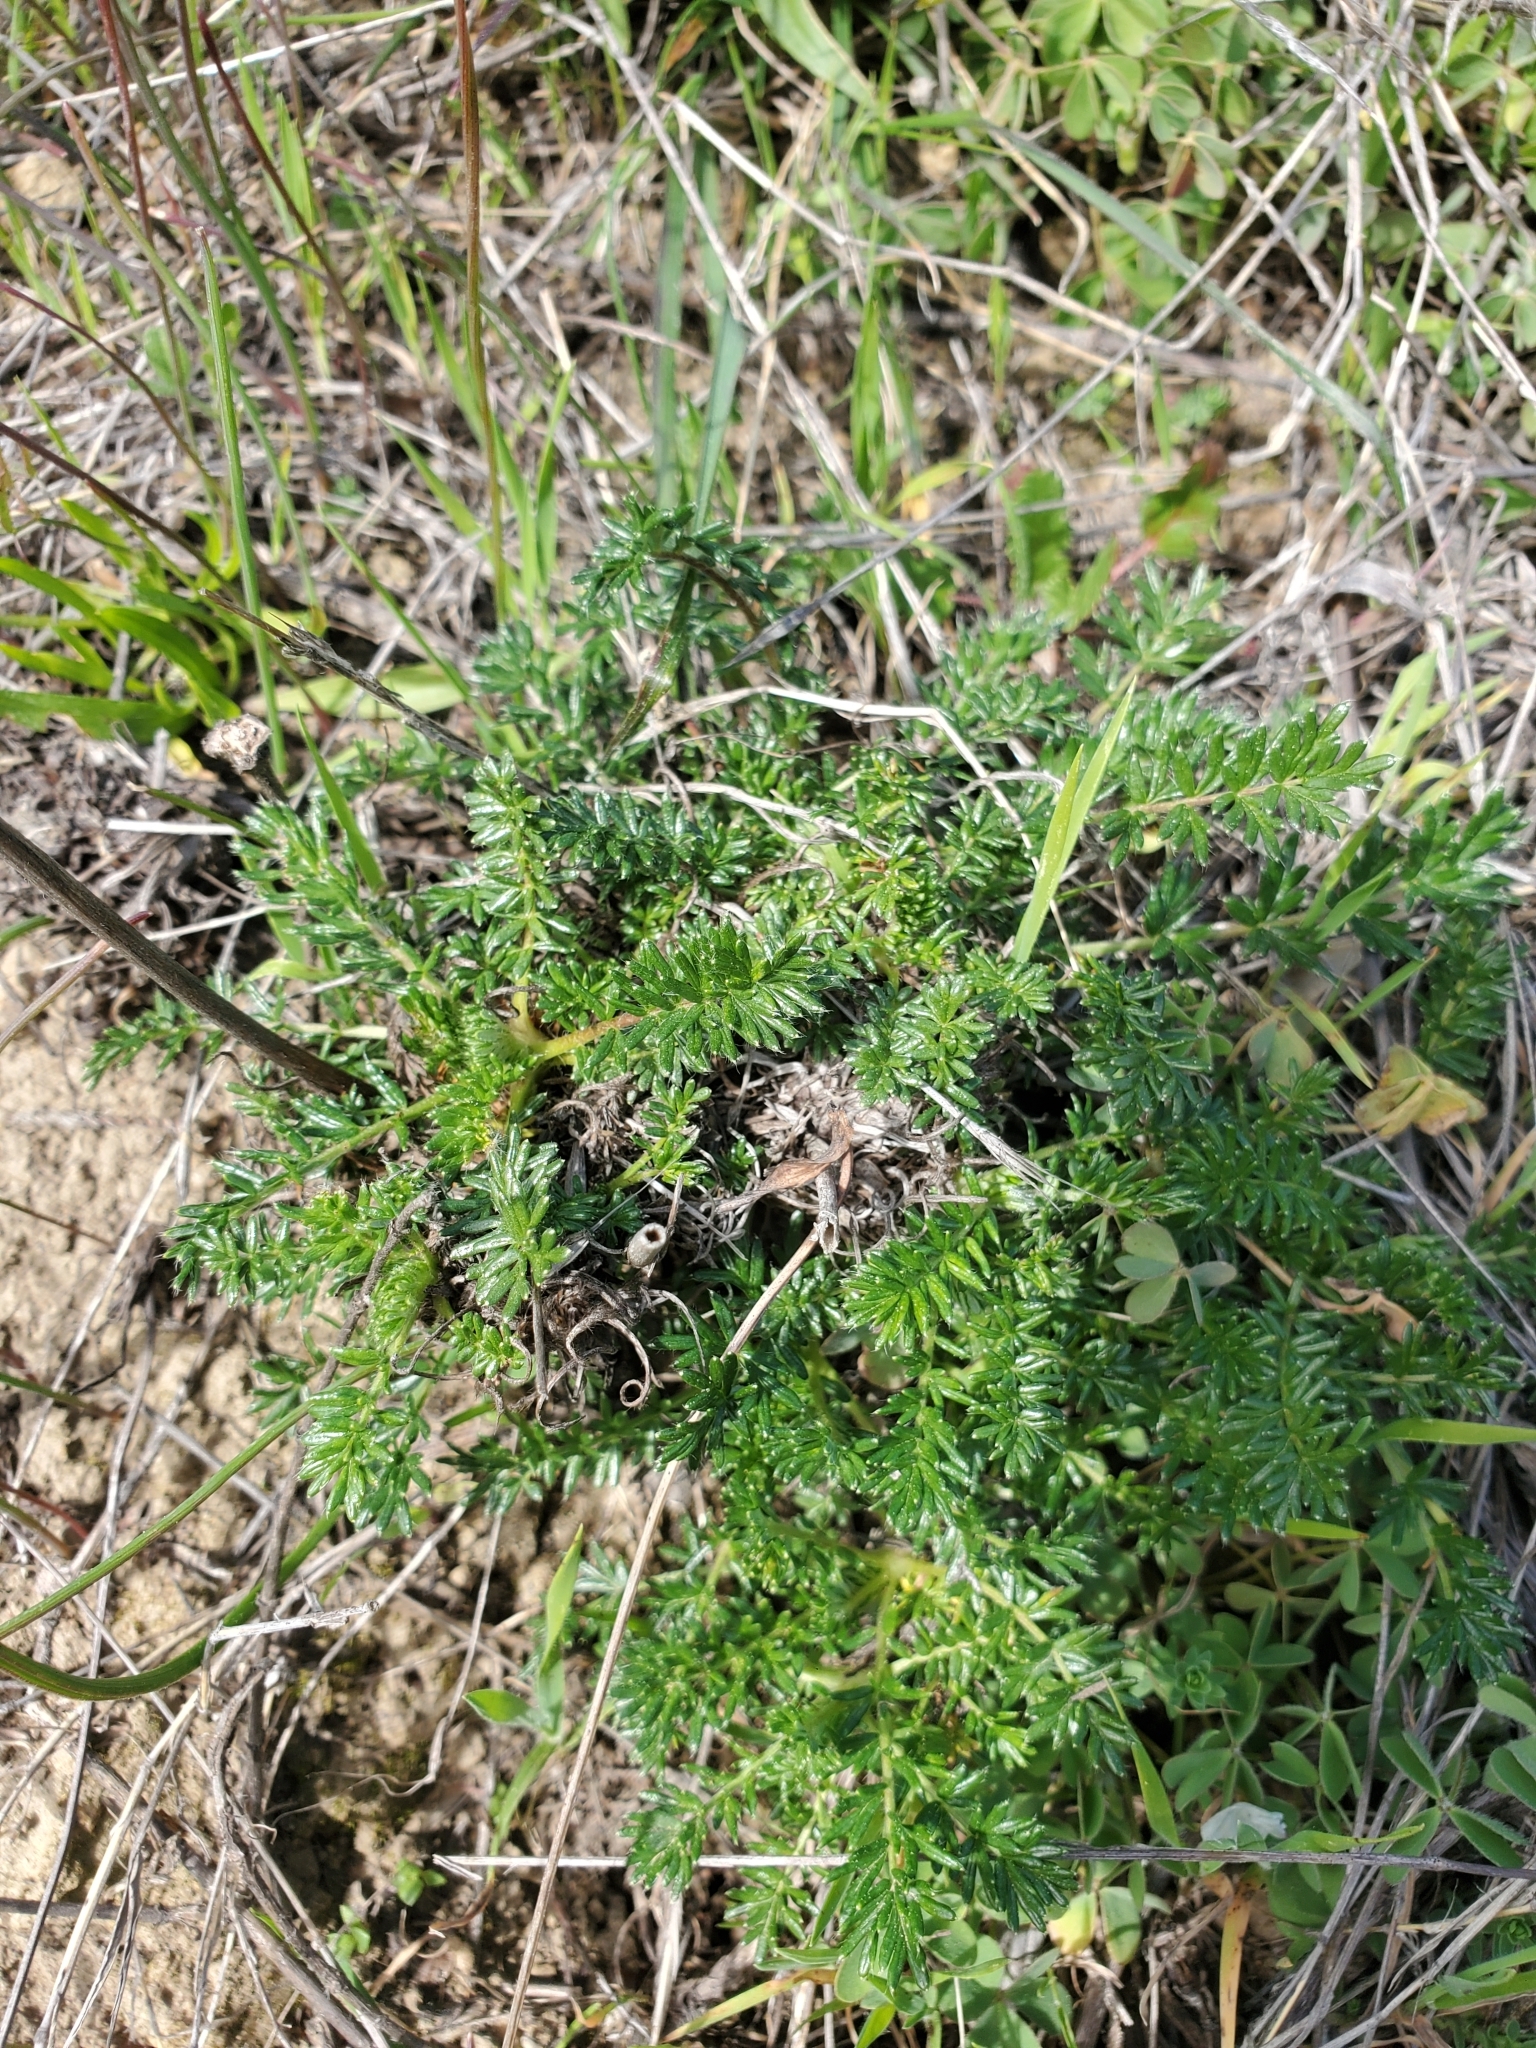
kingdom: Plantae
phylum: Tracheophyta
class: Magnoliopsida
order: Rosales
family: Rosaceae
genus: Acaena
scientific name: Acaena pinnatifida
